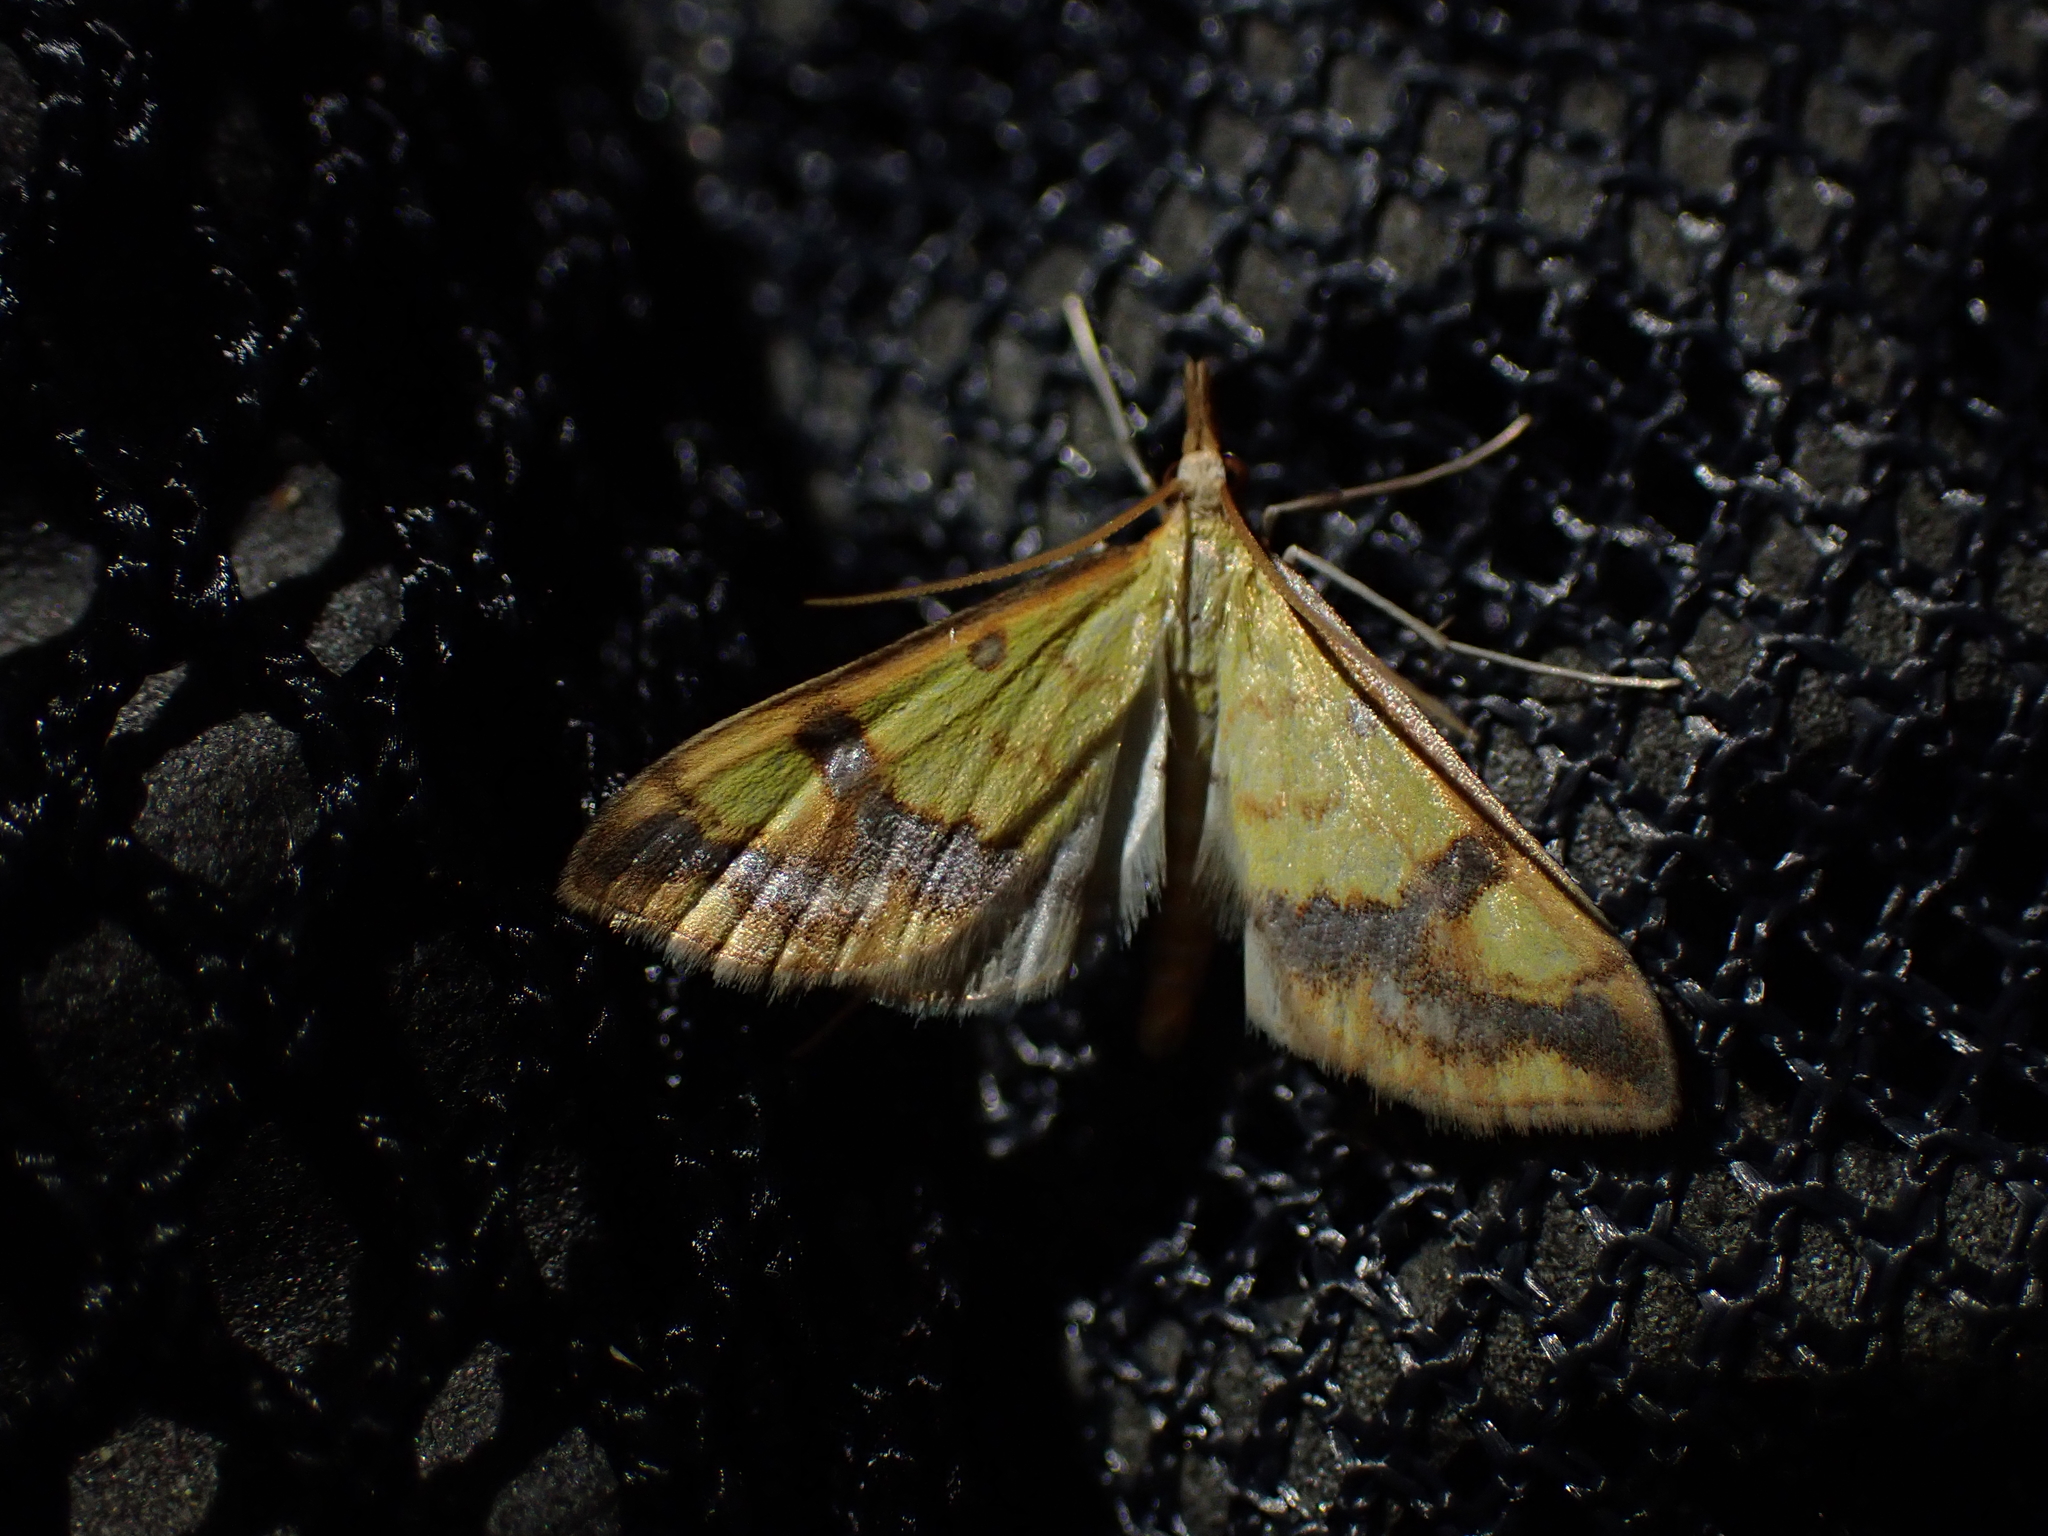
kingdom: Animalia
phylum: Arthropoda
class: Insecta
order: Lepidoptera
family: Crambidae
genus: Choristostigma
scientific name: Choristostigma plumbosignalis
